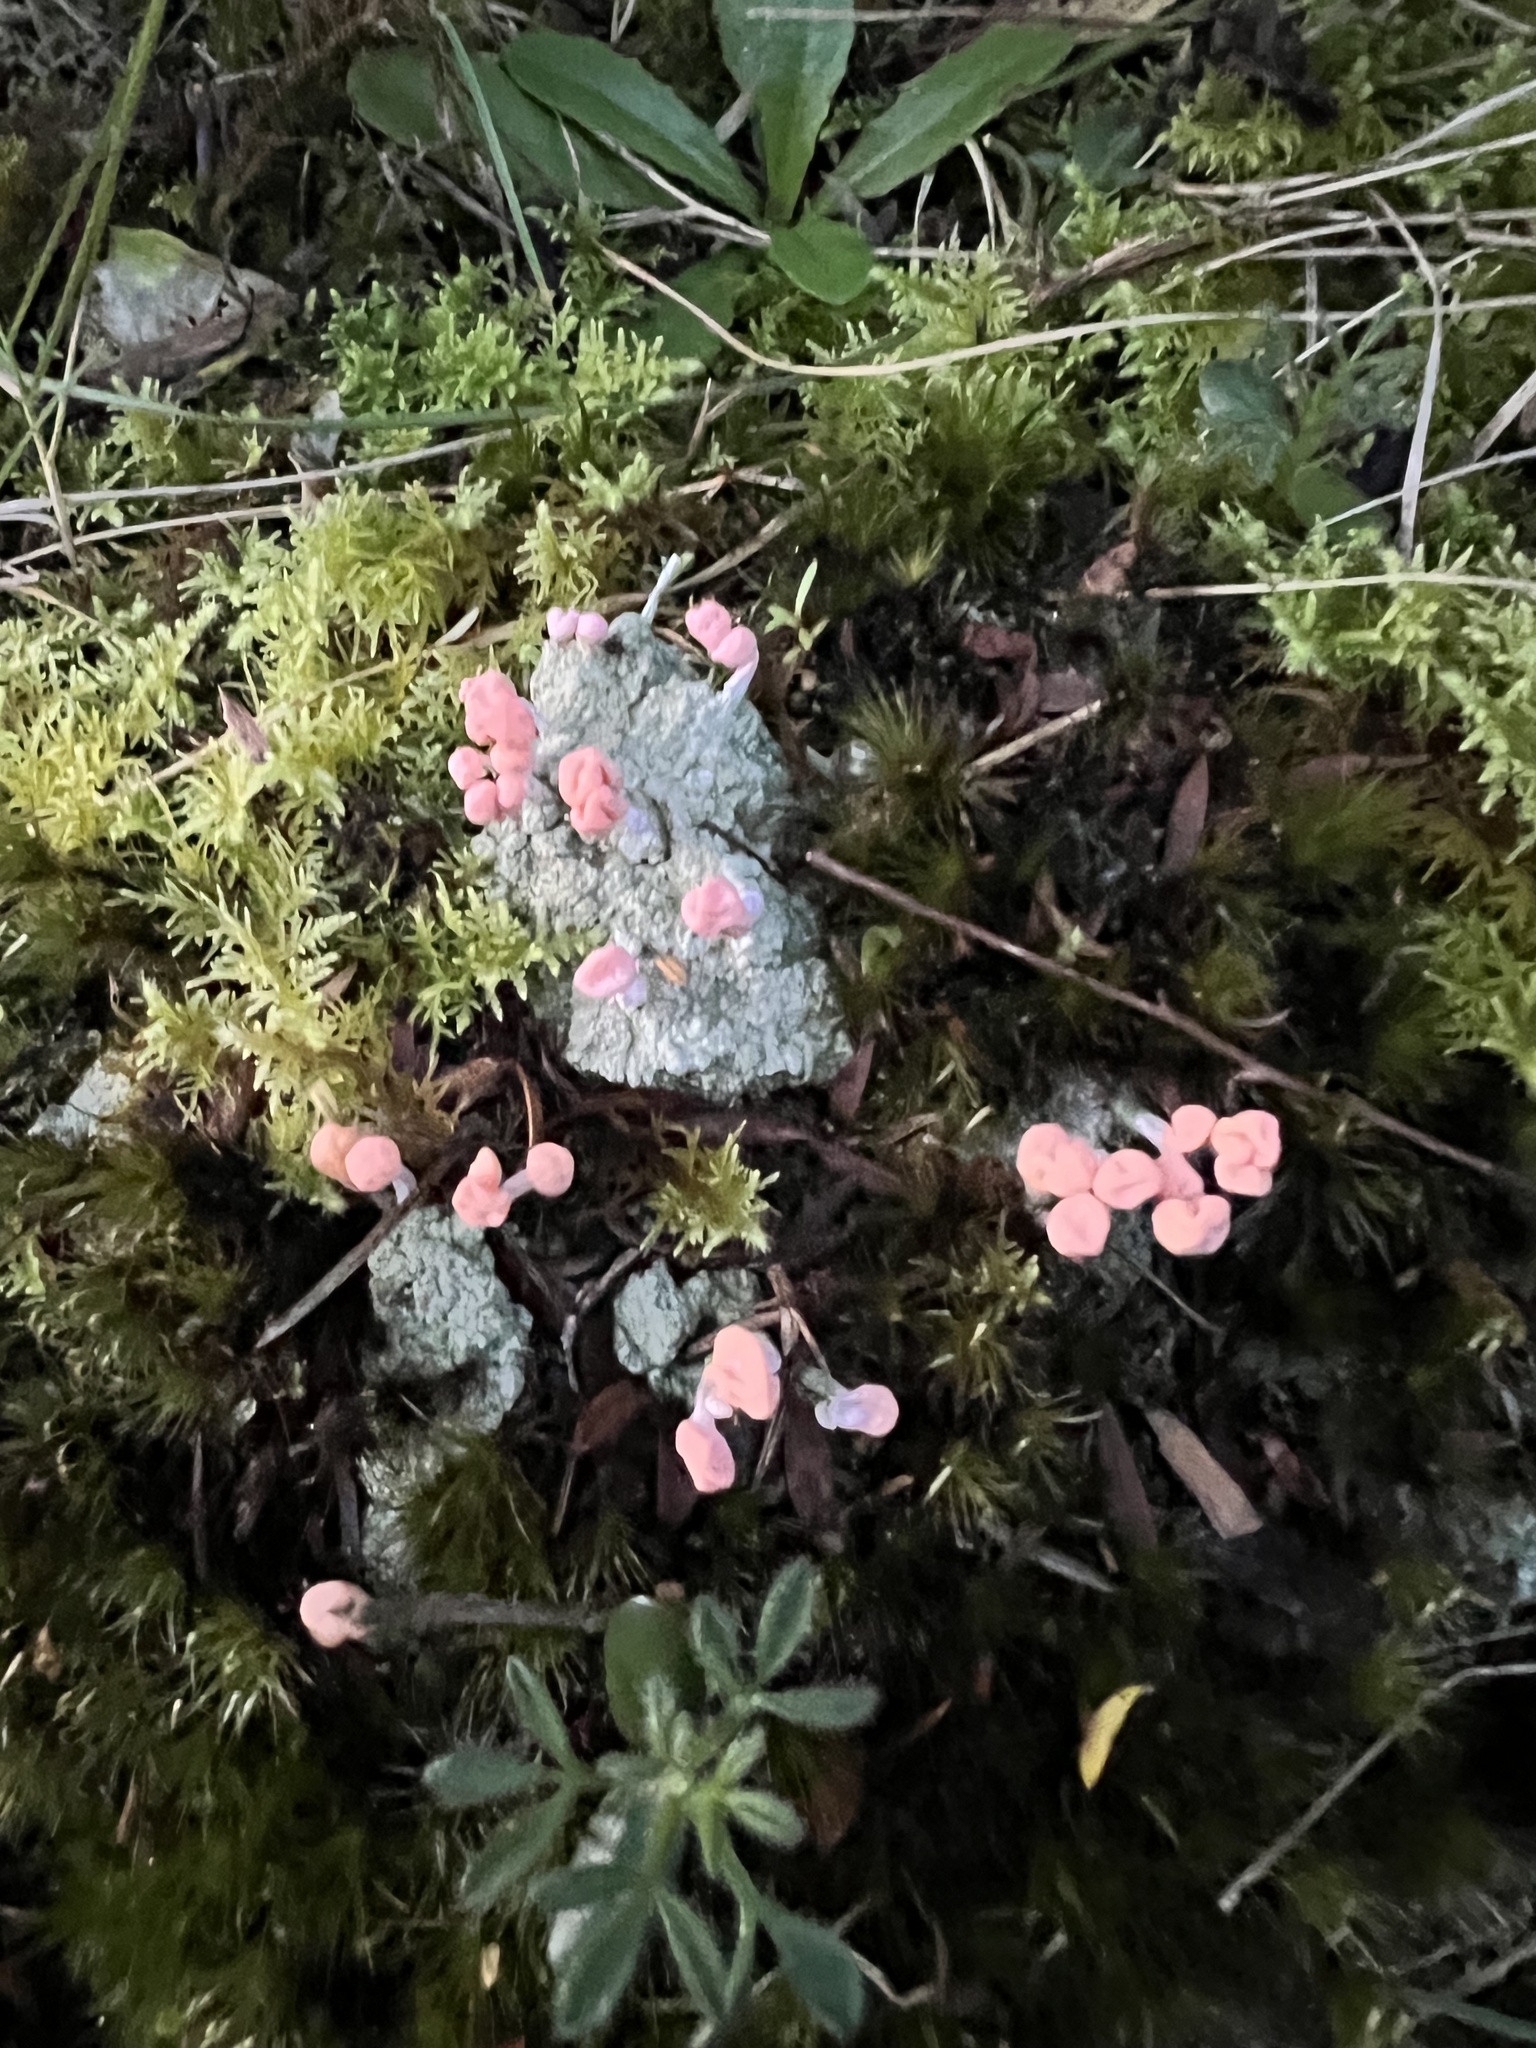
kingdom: Fungi
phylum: Ascomycota
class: Lecanoromycetes
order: Pertusariales
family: Icmadophilaceae
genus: Dibaeis
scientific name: Dibaeis arcuata
